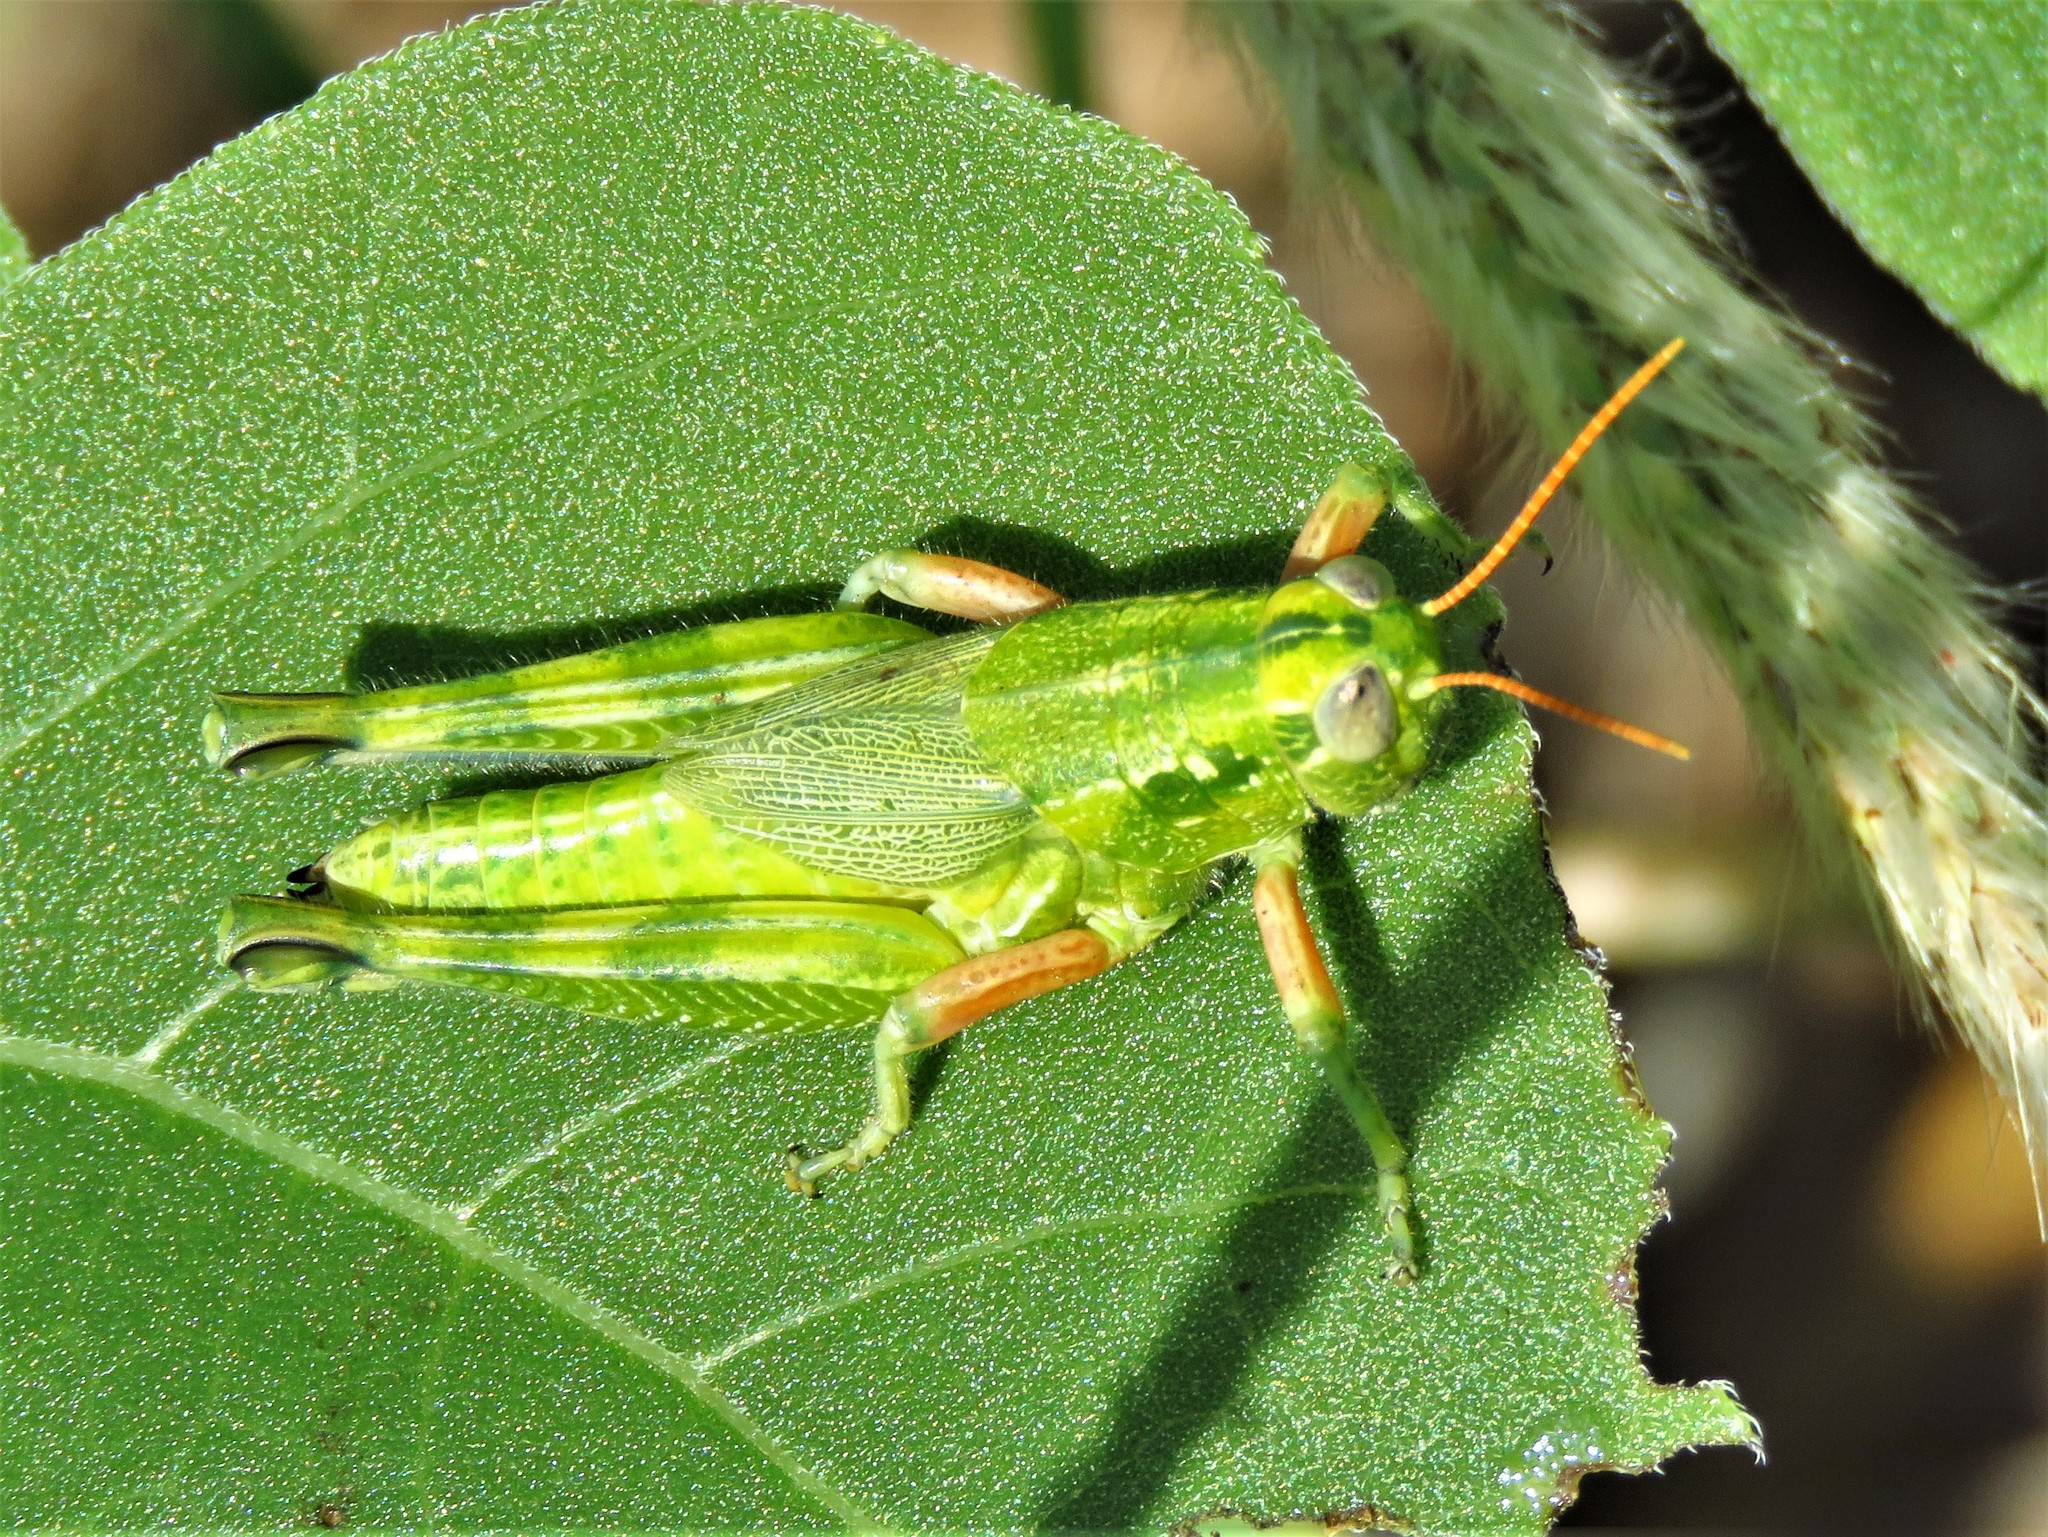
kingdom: Animalia
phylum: Arthropoda
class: Insecta
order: Orthoptera
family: Acrididae
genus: Campylacantha
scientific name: Campylacantha olivacea
